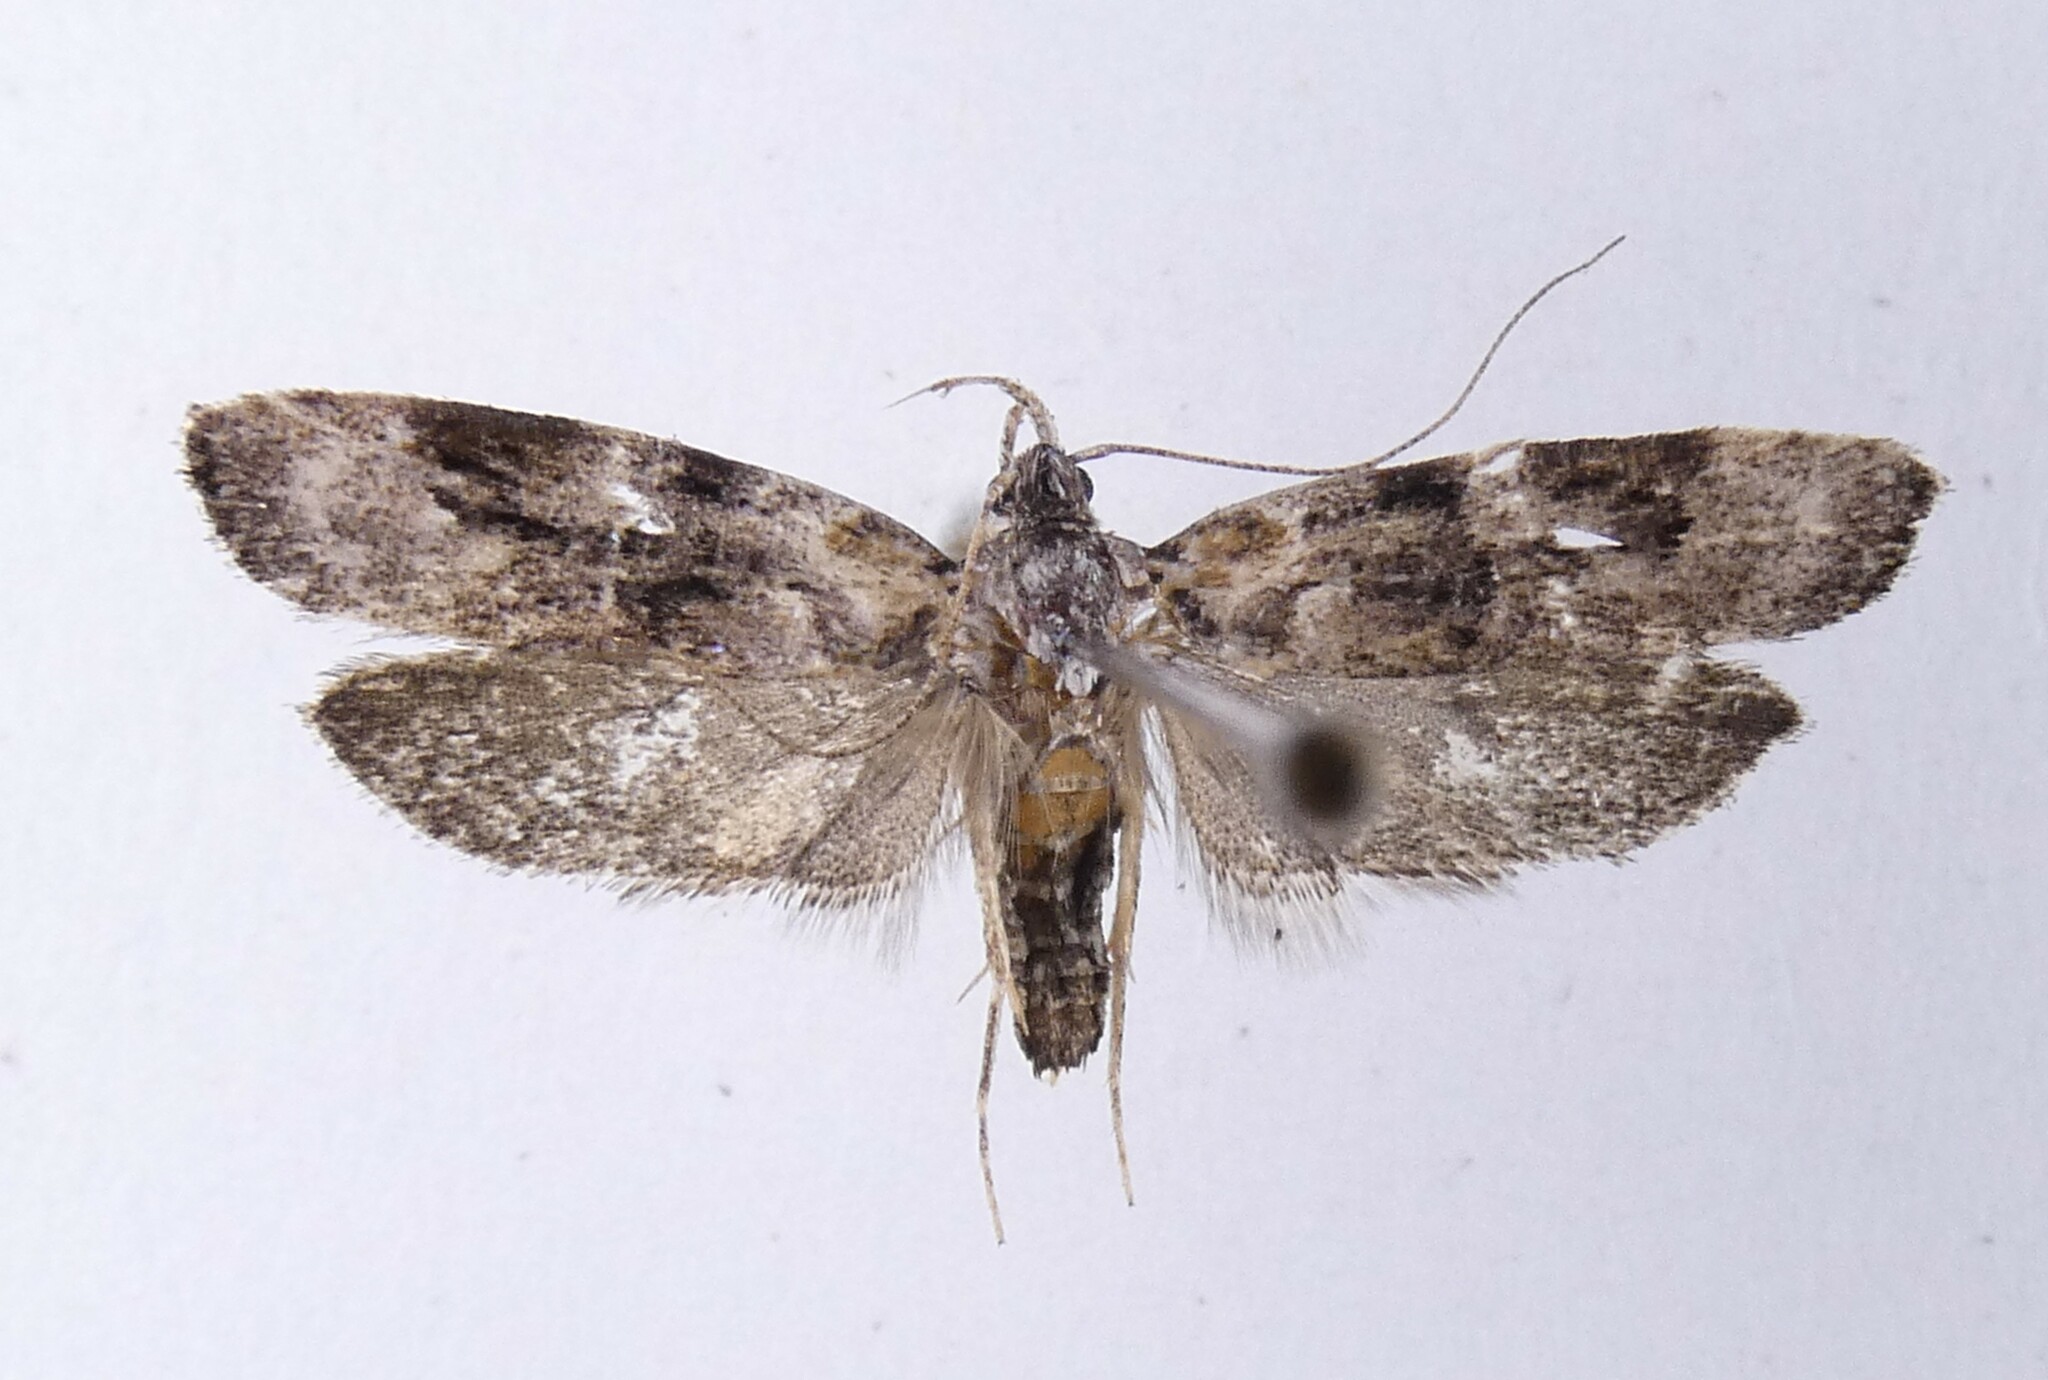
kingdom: Animalia
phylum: Arthropoda
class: Insecta
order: Lepidoptera
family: Oecophoridae
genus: Izatha
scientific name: Izatha metadelta
